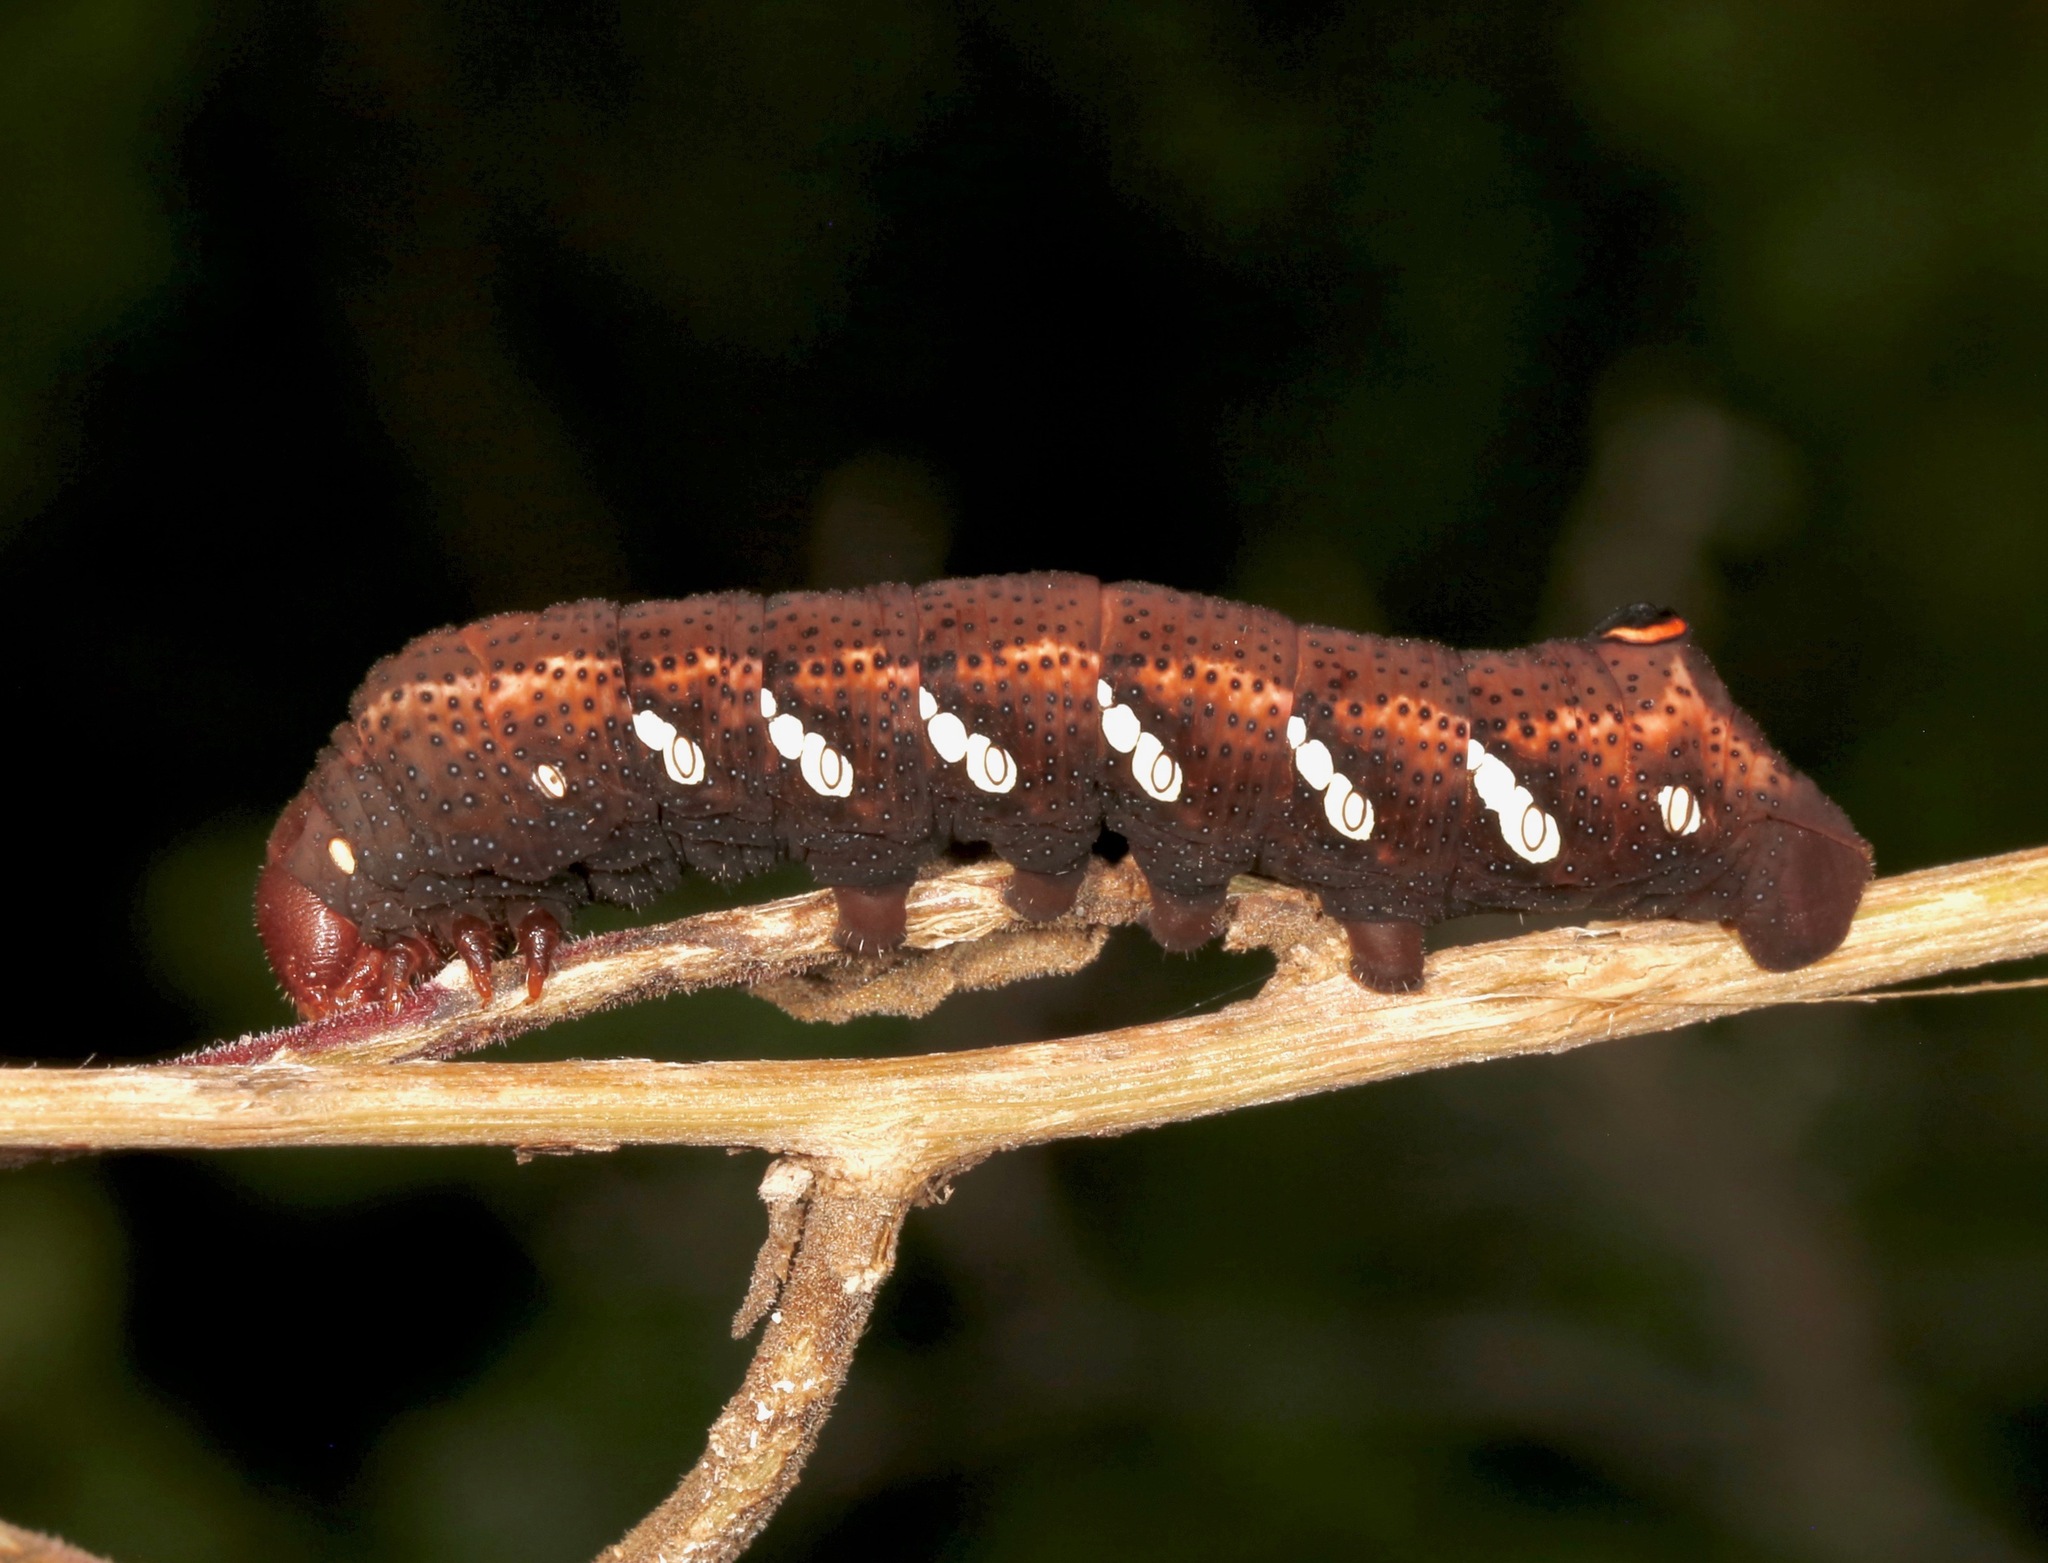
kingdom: Animalia
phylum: Arthropoda
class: Insecta
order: Lepidoptera
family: Sphingidae
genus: Eumorpha
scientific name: Eumorpha achemon
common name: Achemon sphinx
